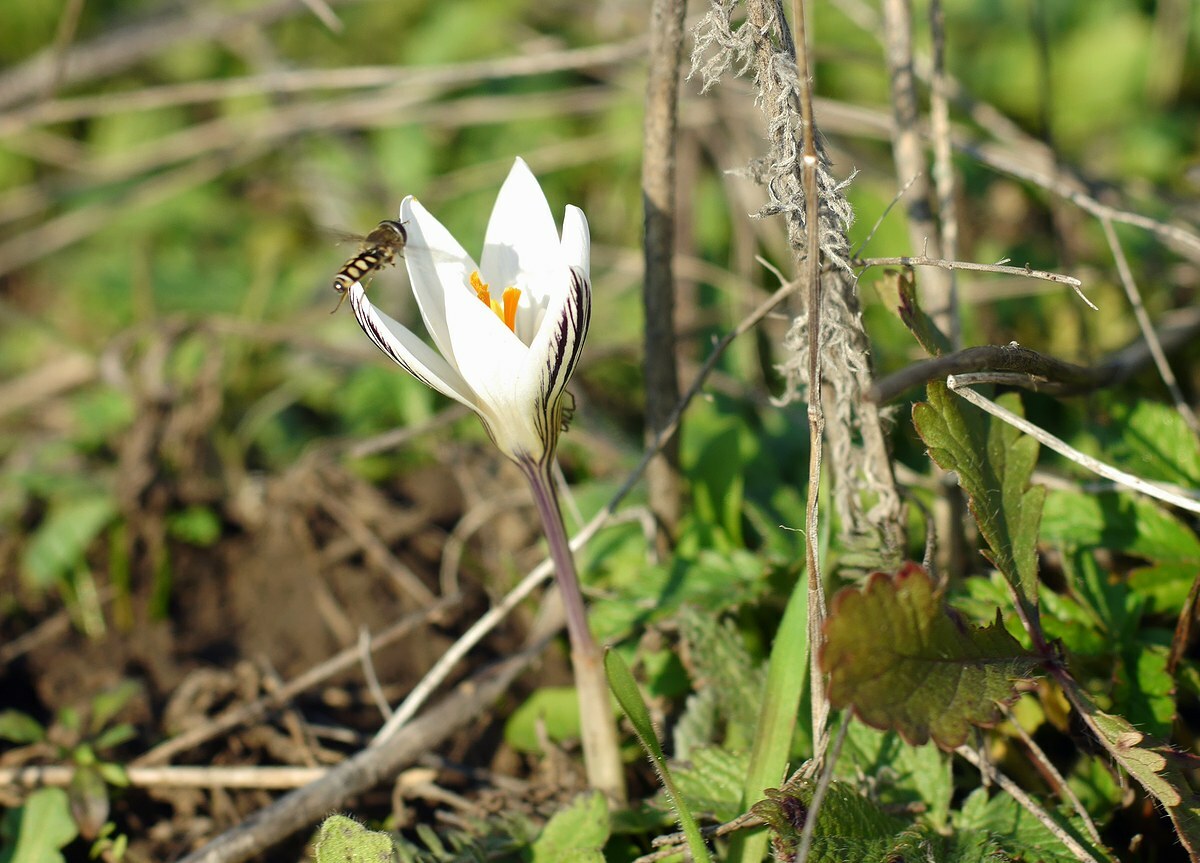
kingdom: Plantae
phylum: Tracheophyta
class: Liliopsida
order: Asparagales
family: Iridaceae
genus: Crocus
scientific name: Crocus reticulatus
